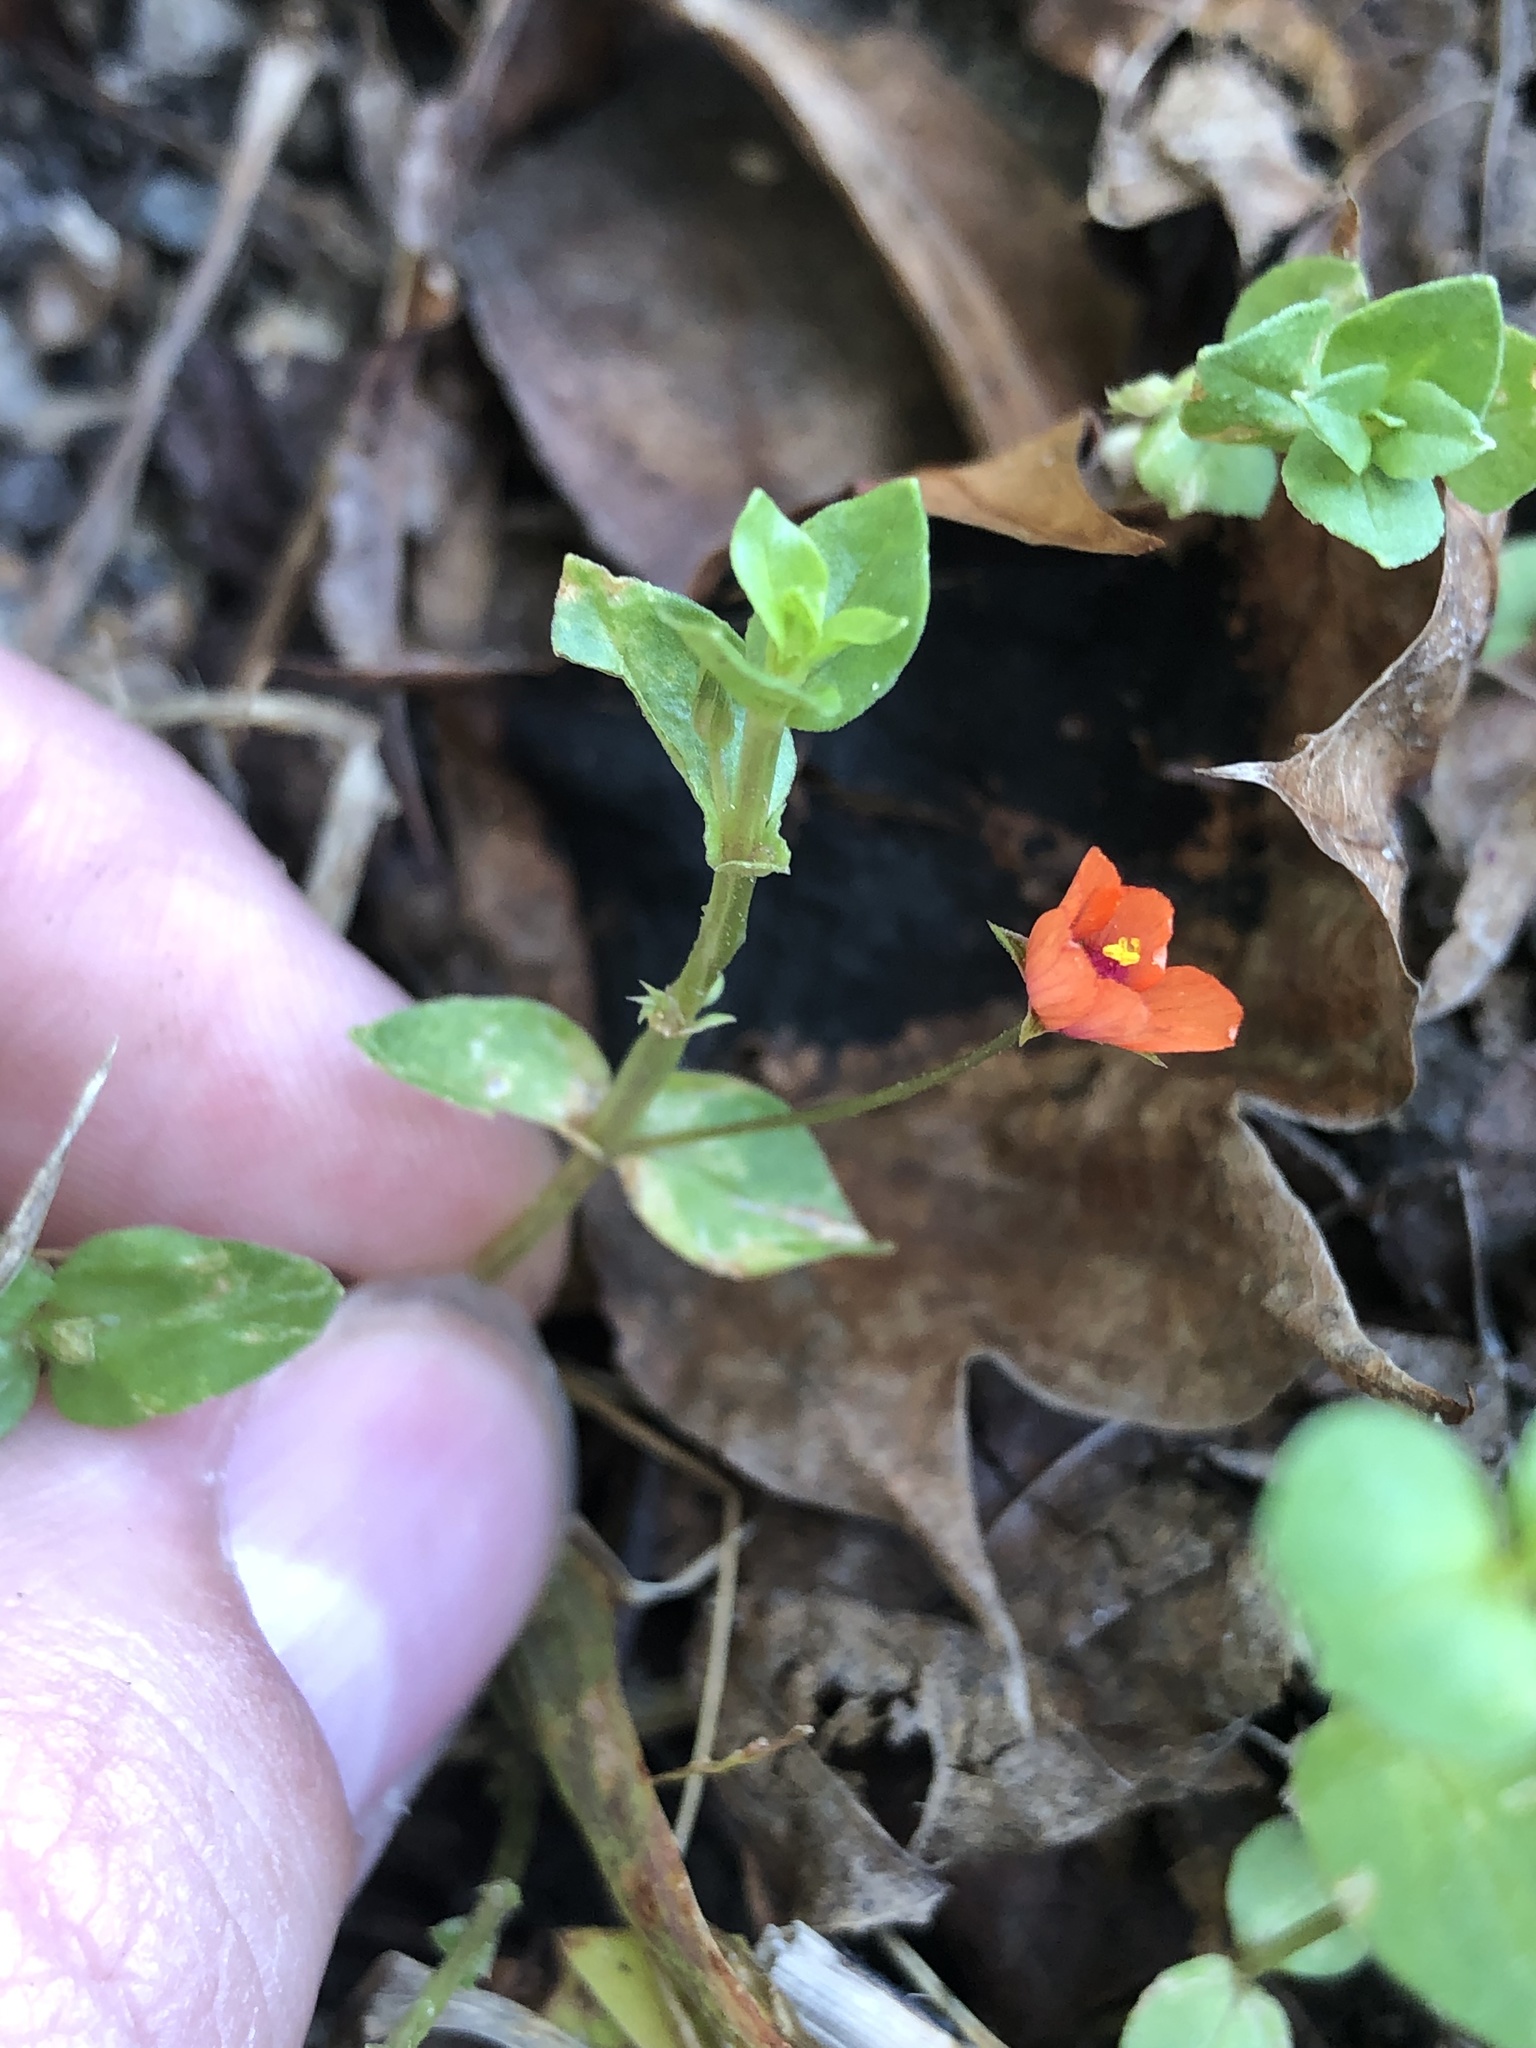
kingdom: Plantae
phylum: Tracheophyta
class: Magnoliopsida
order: Ericales
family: Primulaceae
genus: Lysimachia
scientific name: Lysimachia arvensis
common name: Scarlet pimpernel
